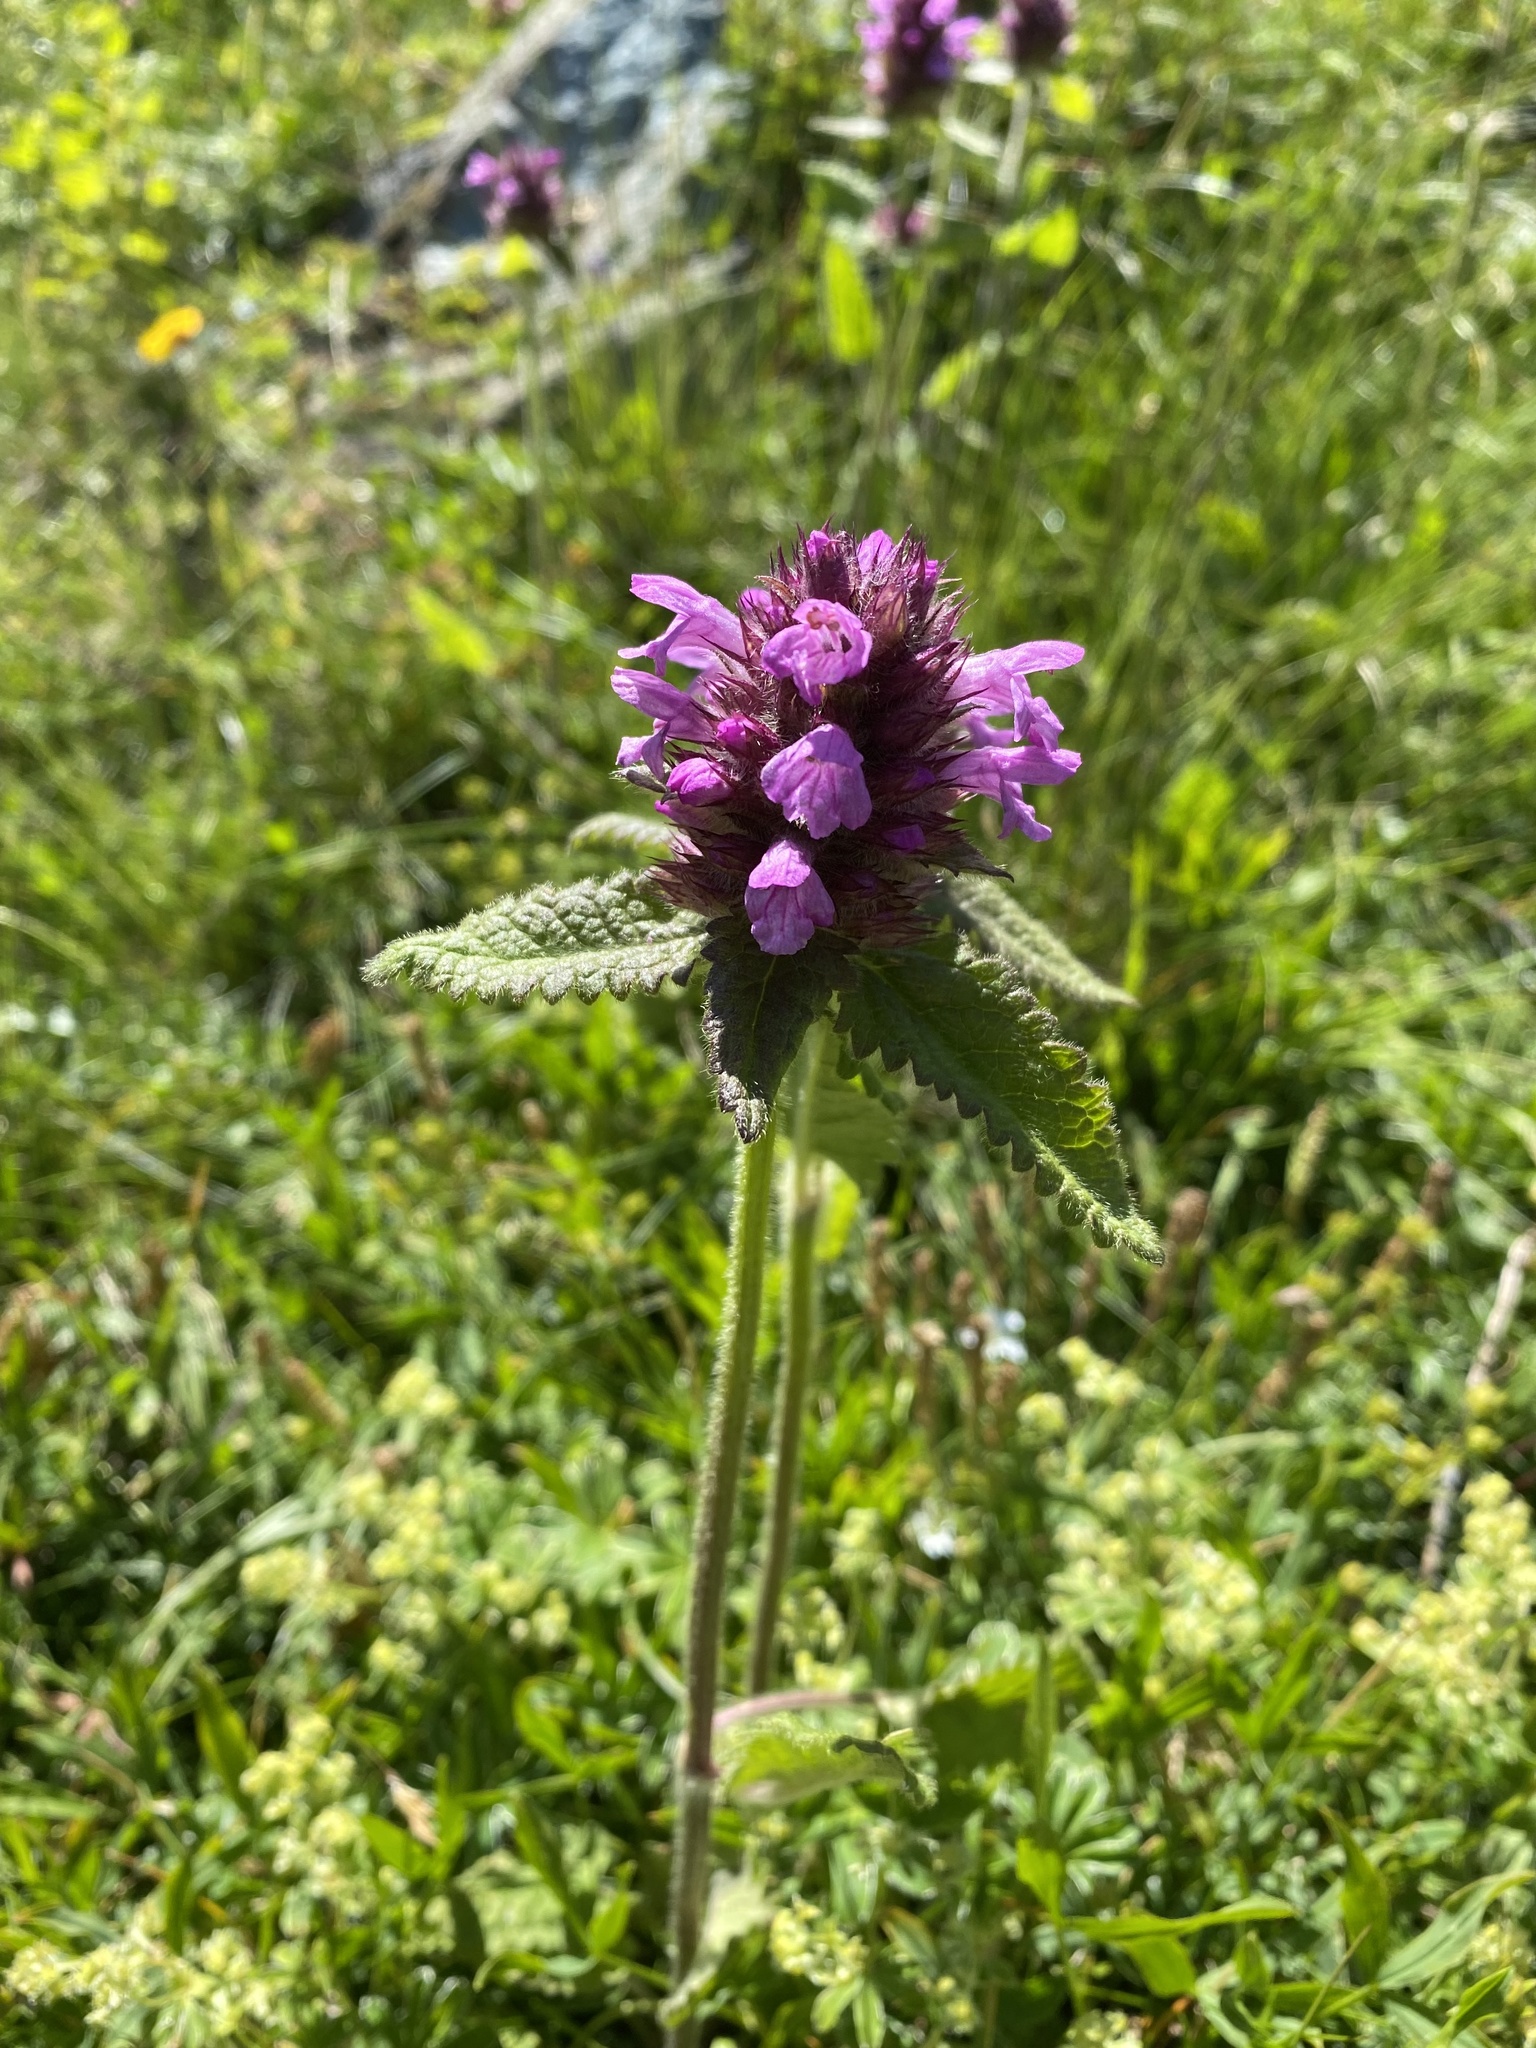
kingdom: Plantae
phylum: Tracheophyta
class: Magnoliopsida
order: Lamiales
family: Lamiaceae
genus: Betonica
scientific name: Betonica officinalis
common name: Bishop's-wort
